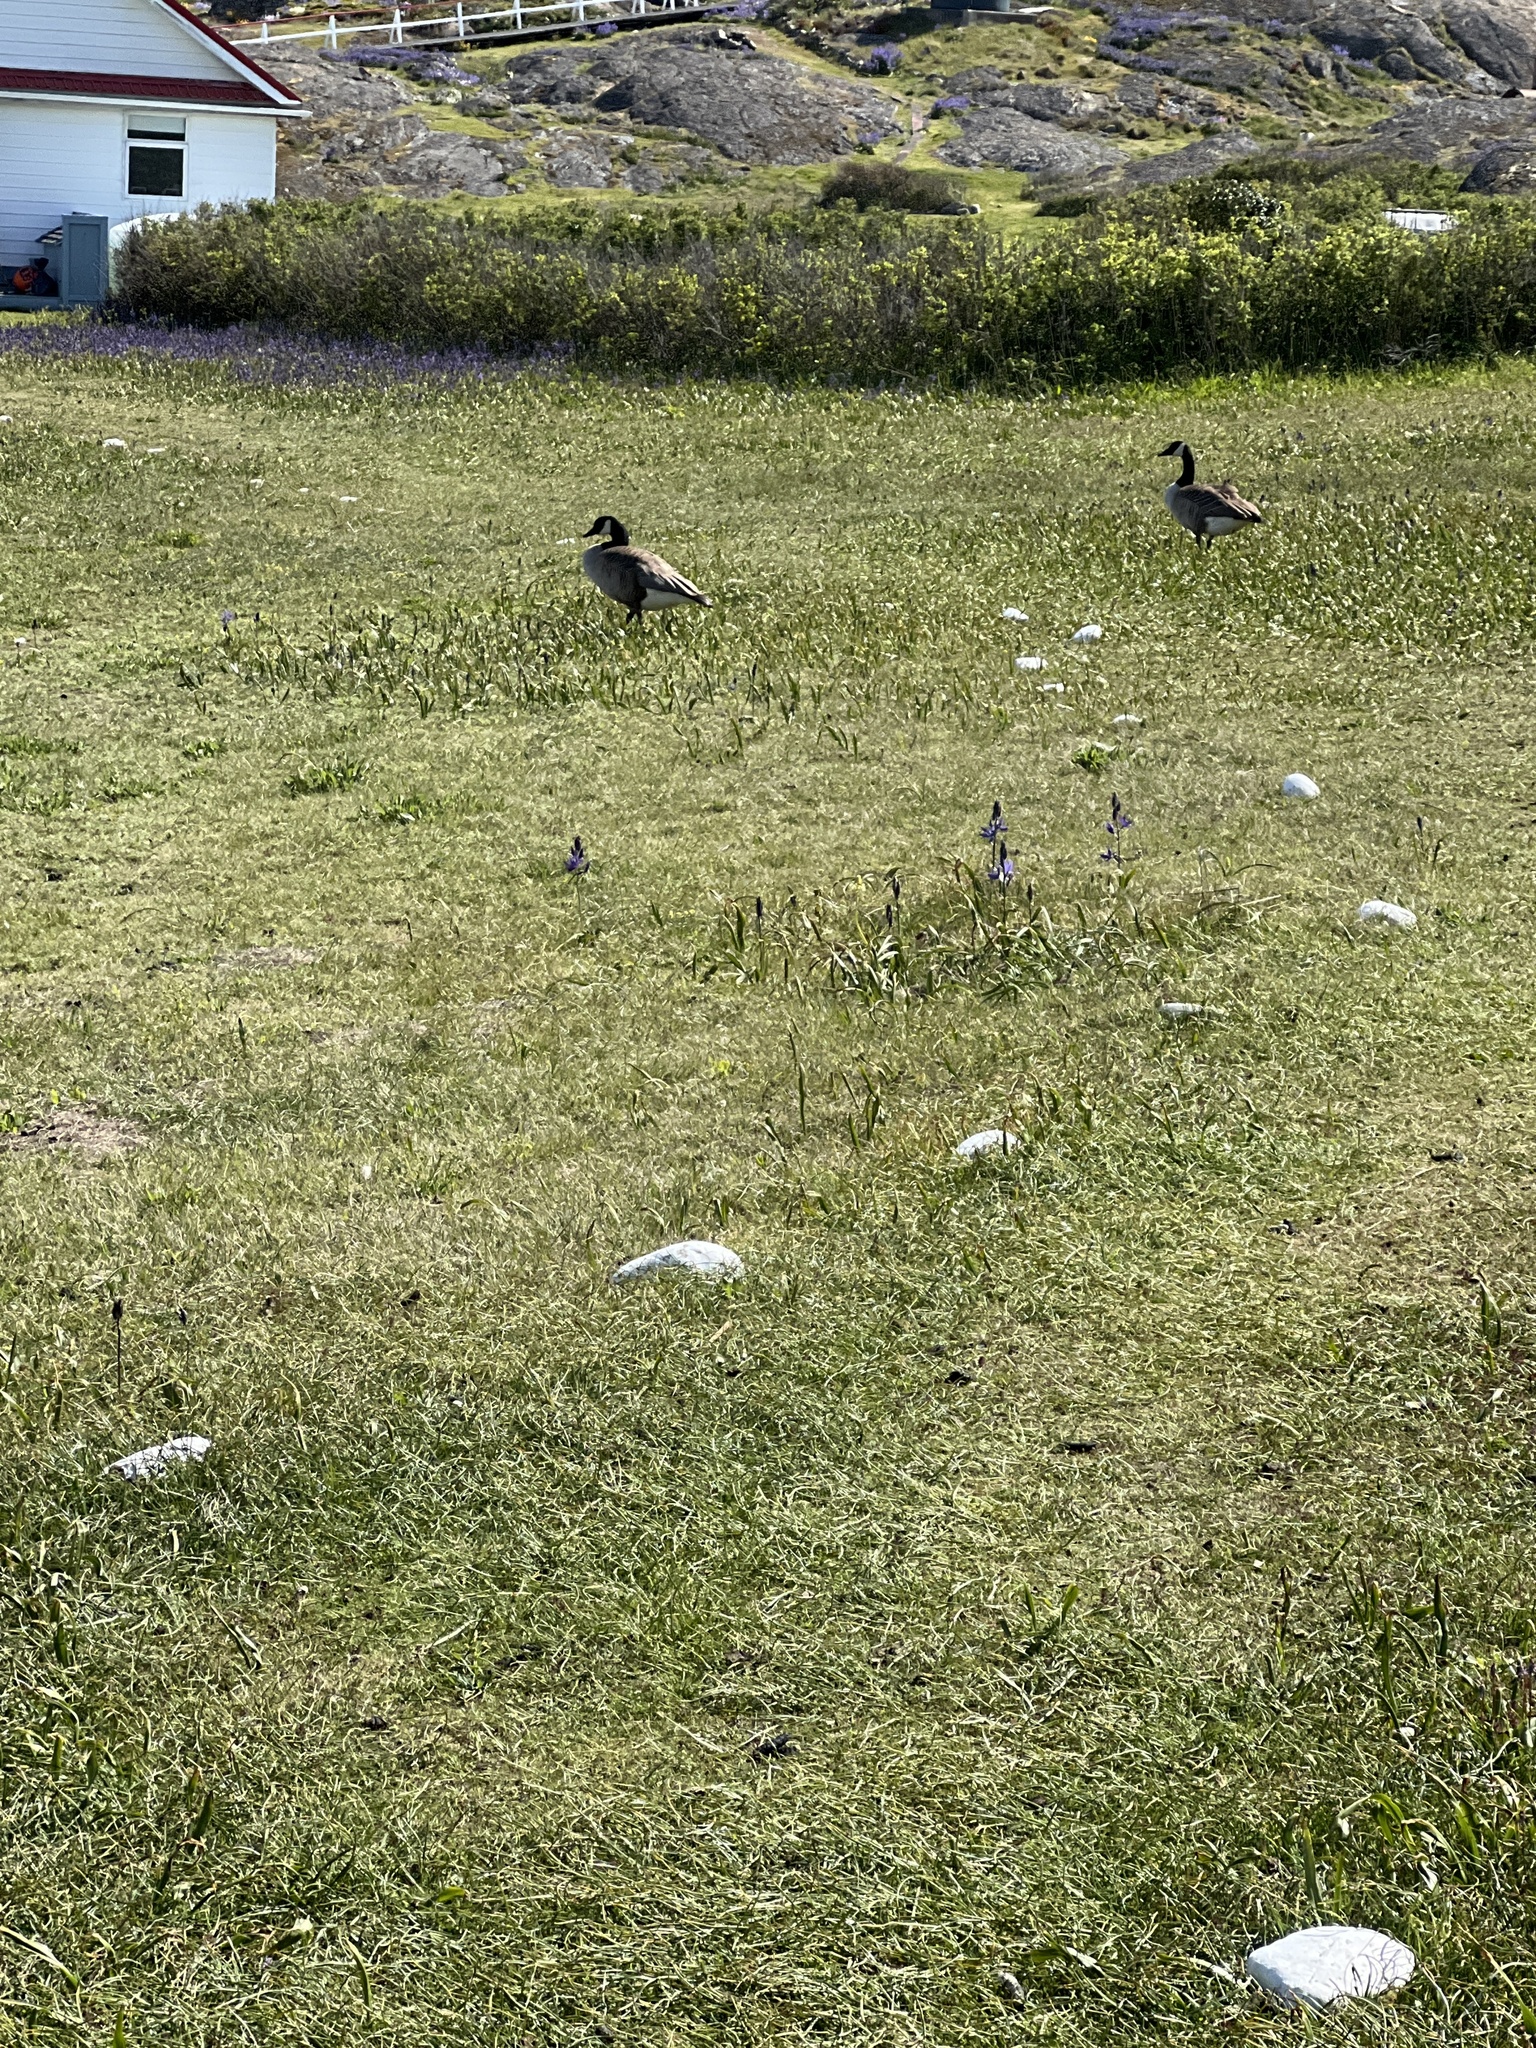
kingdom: Animalia
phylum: Chordata
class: Aves
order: Anseriformes
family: Anatidae
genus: Branta
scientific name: Branta canadensis
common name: Canada goose
